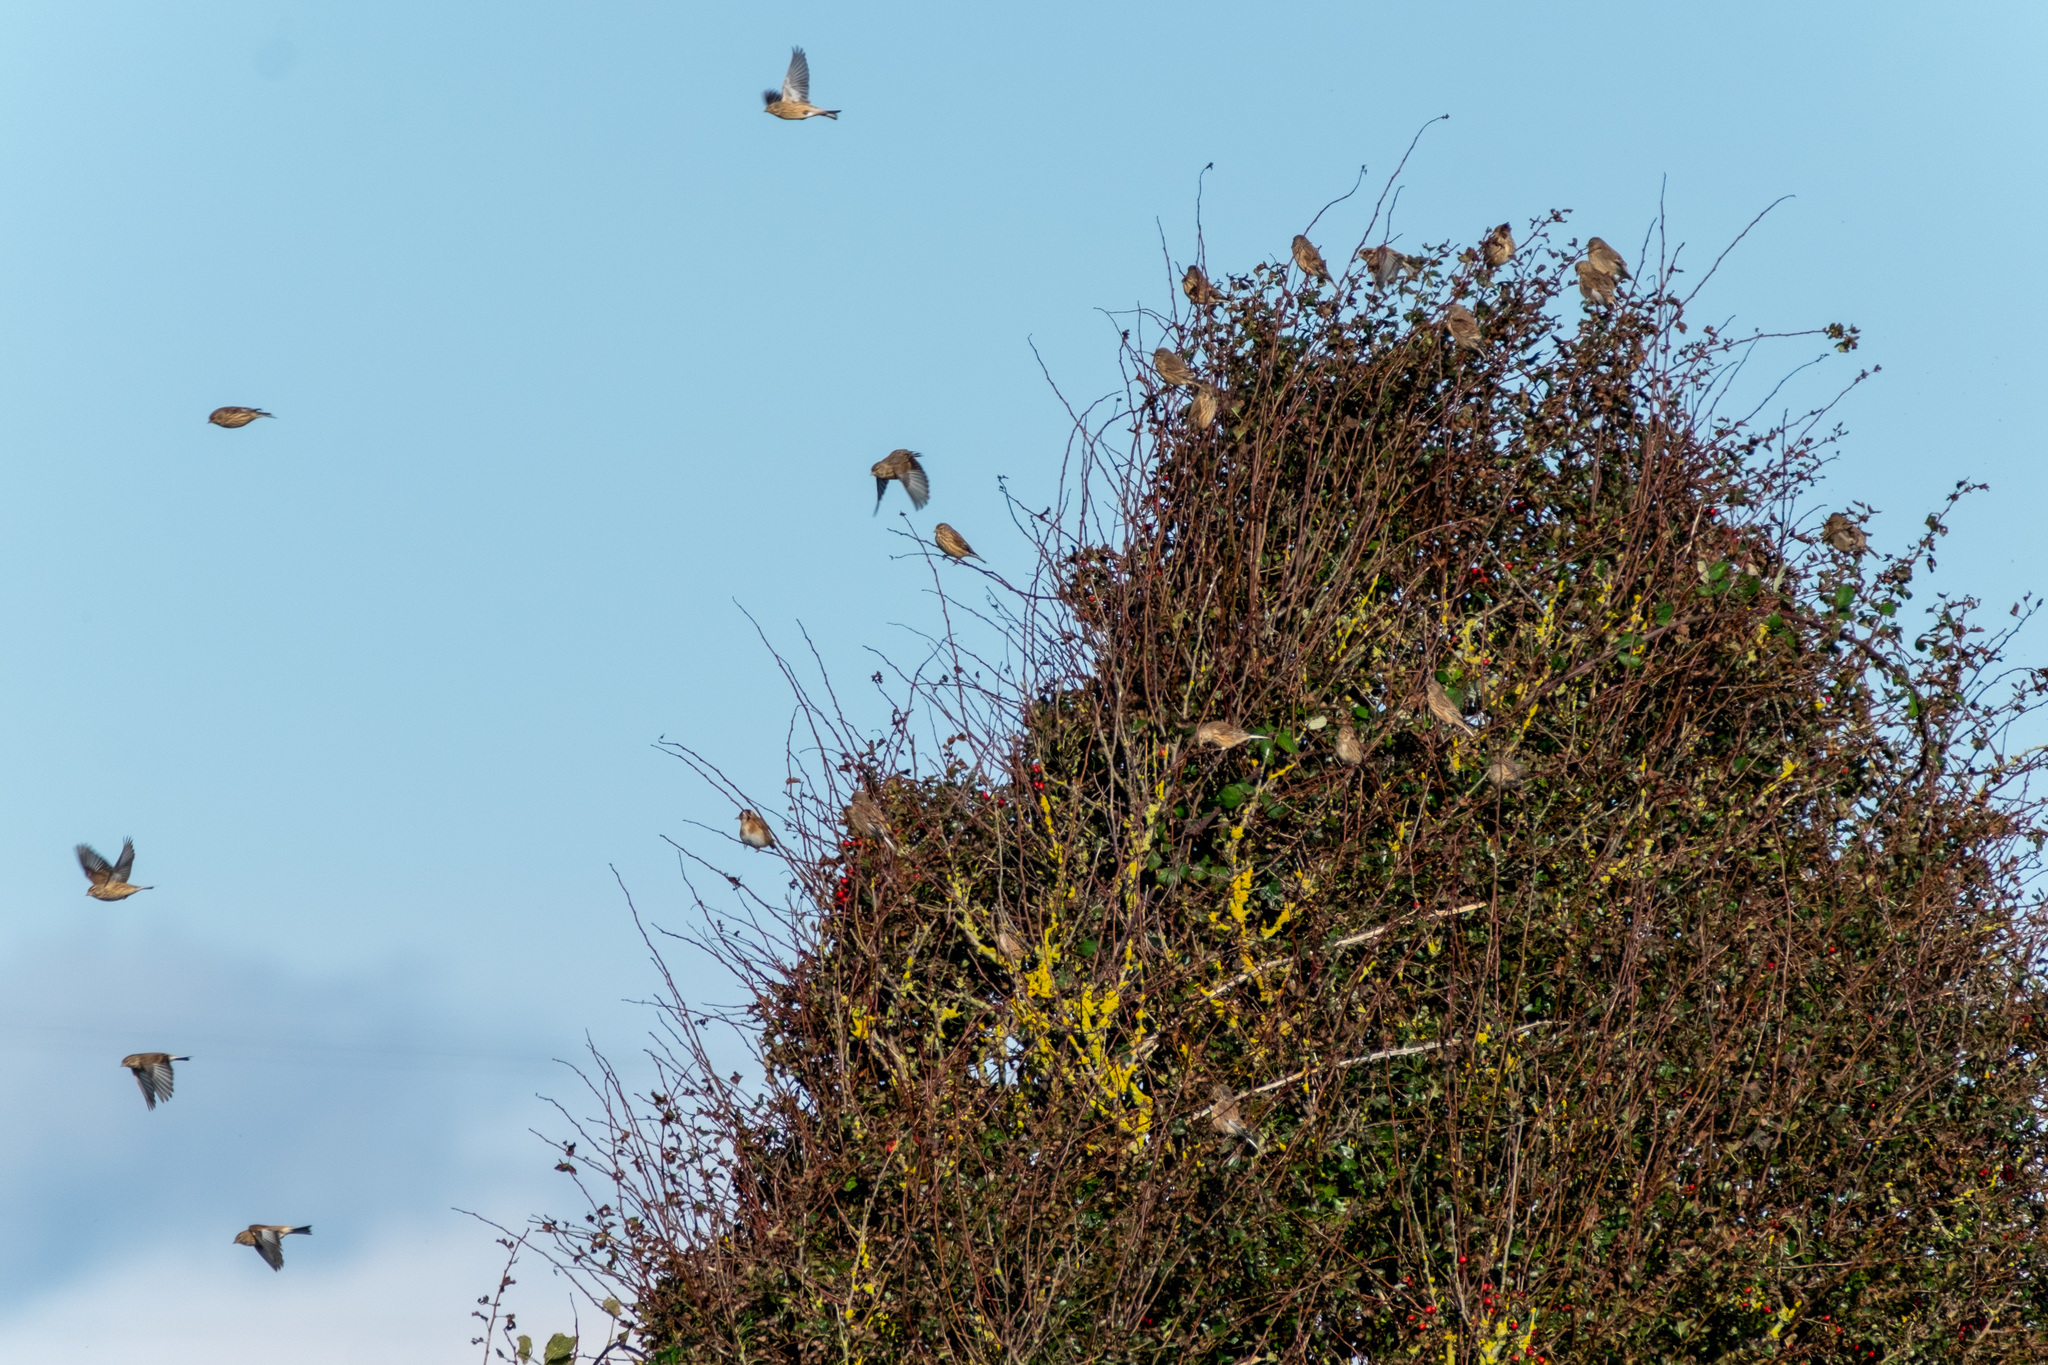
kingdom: Animalia
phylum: Chordata
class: Aves
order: Passeriformes
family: Fringillidae
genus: Linaria
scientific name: Linaria cannabina
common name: Common linnet
